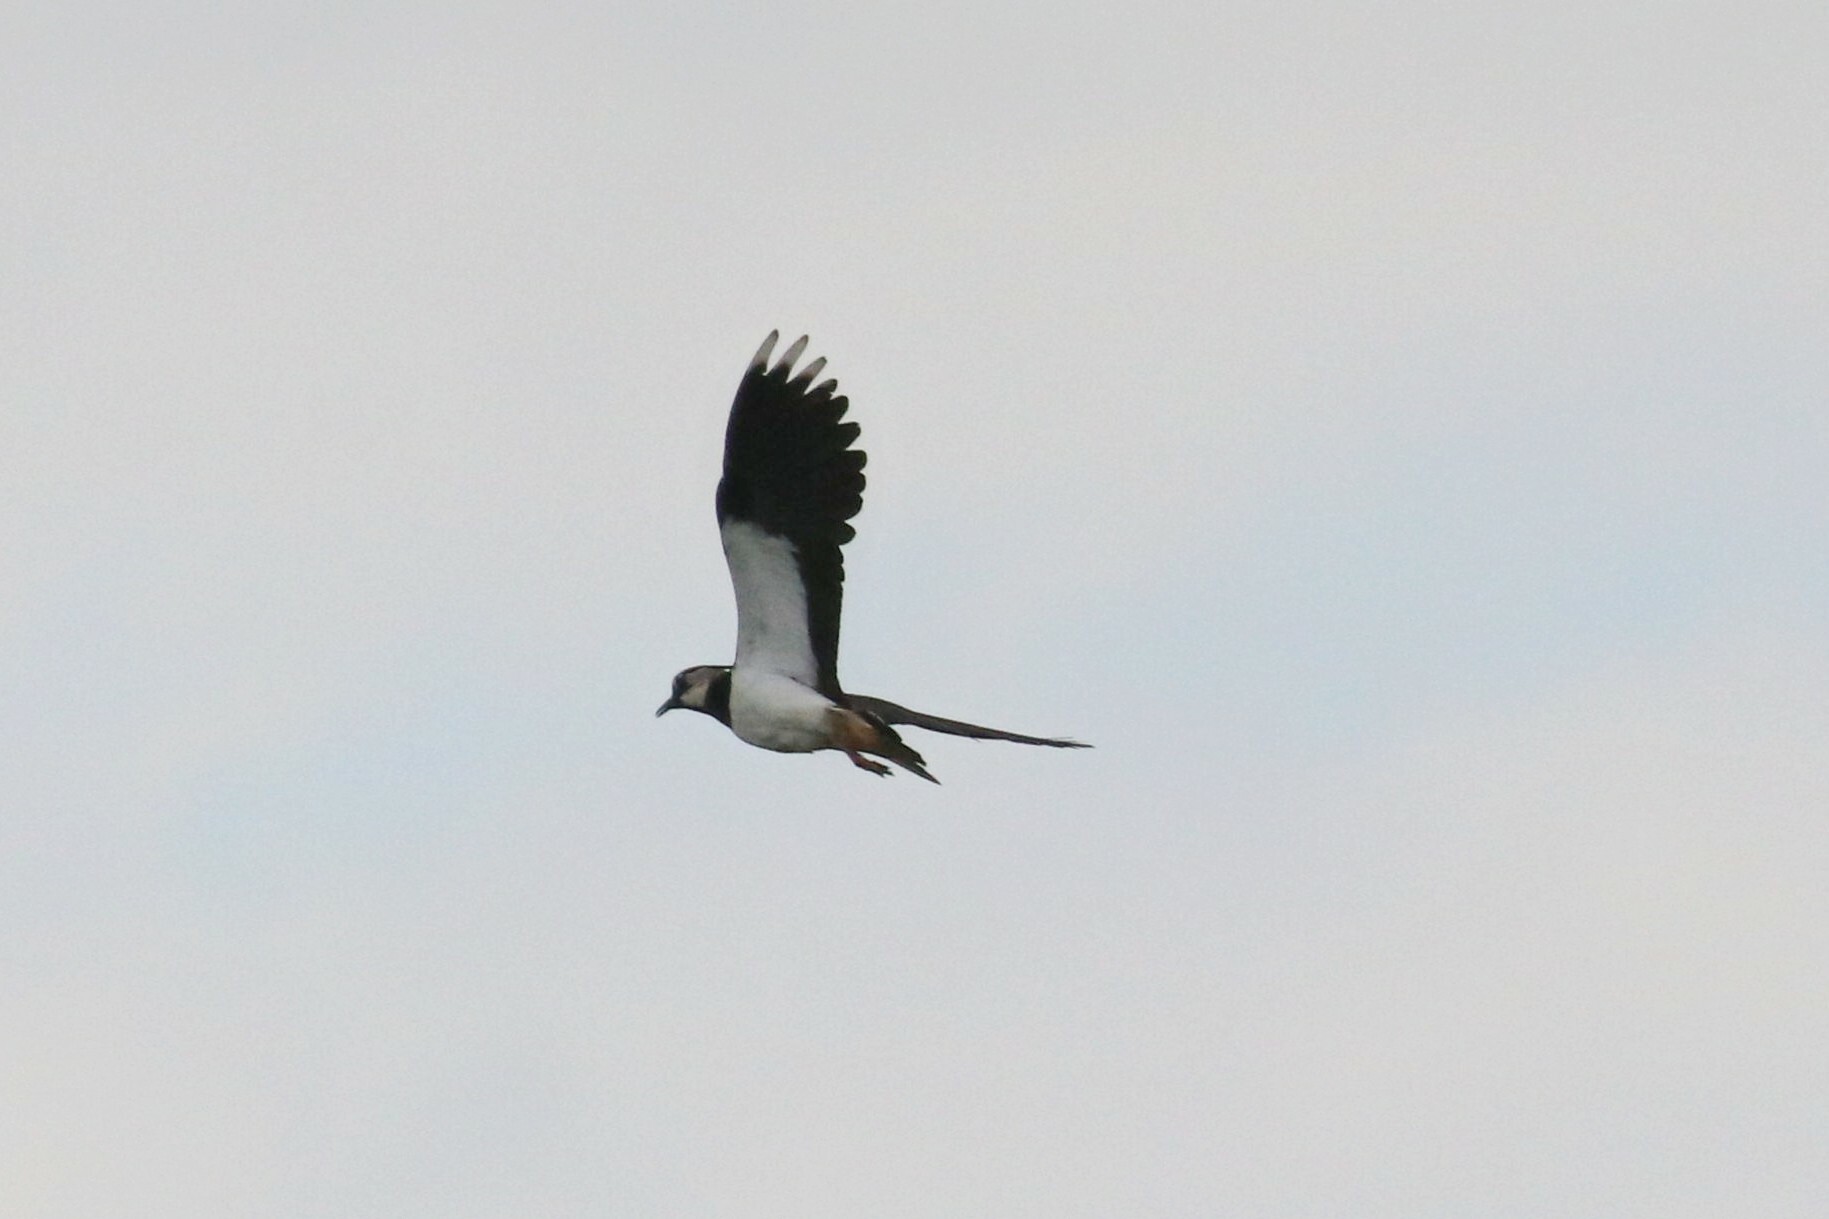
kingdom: Animalia
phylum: Chordata
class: Aves
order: Charadriiformes
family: Charadriidae
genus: Vanellus
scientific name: Vanellus vanellus
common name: Northern lapwing
